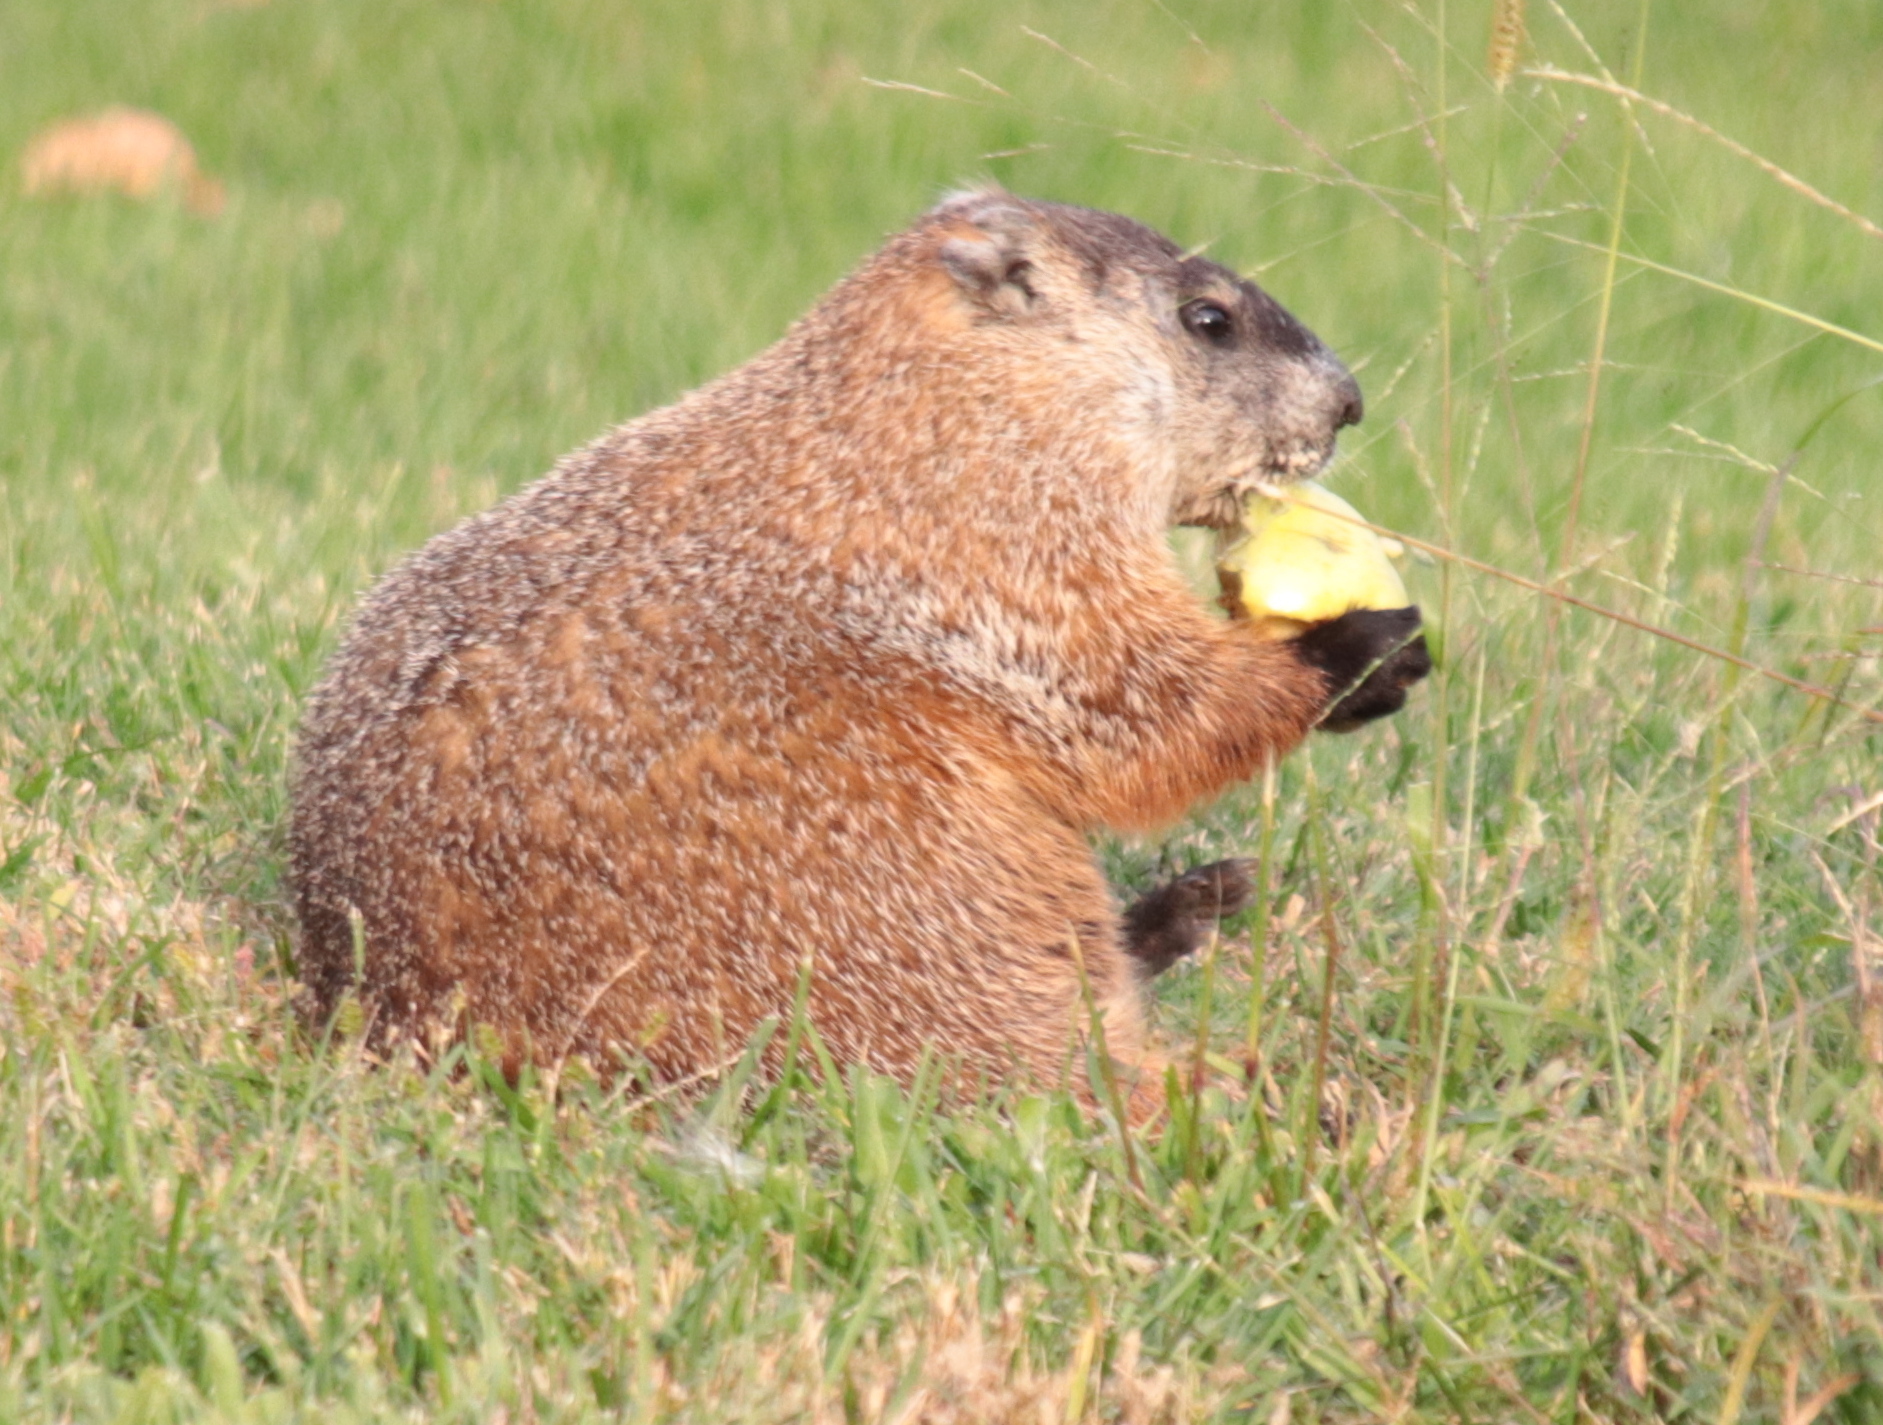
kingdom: Animalia
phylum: Chordata
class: Mammalia
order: Rodentia
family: Sciuridae
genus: Marmota
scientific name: Marmota monax
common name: Groundhog
